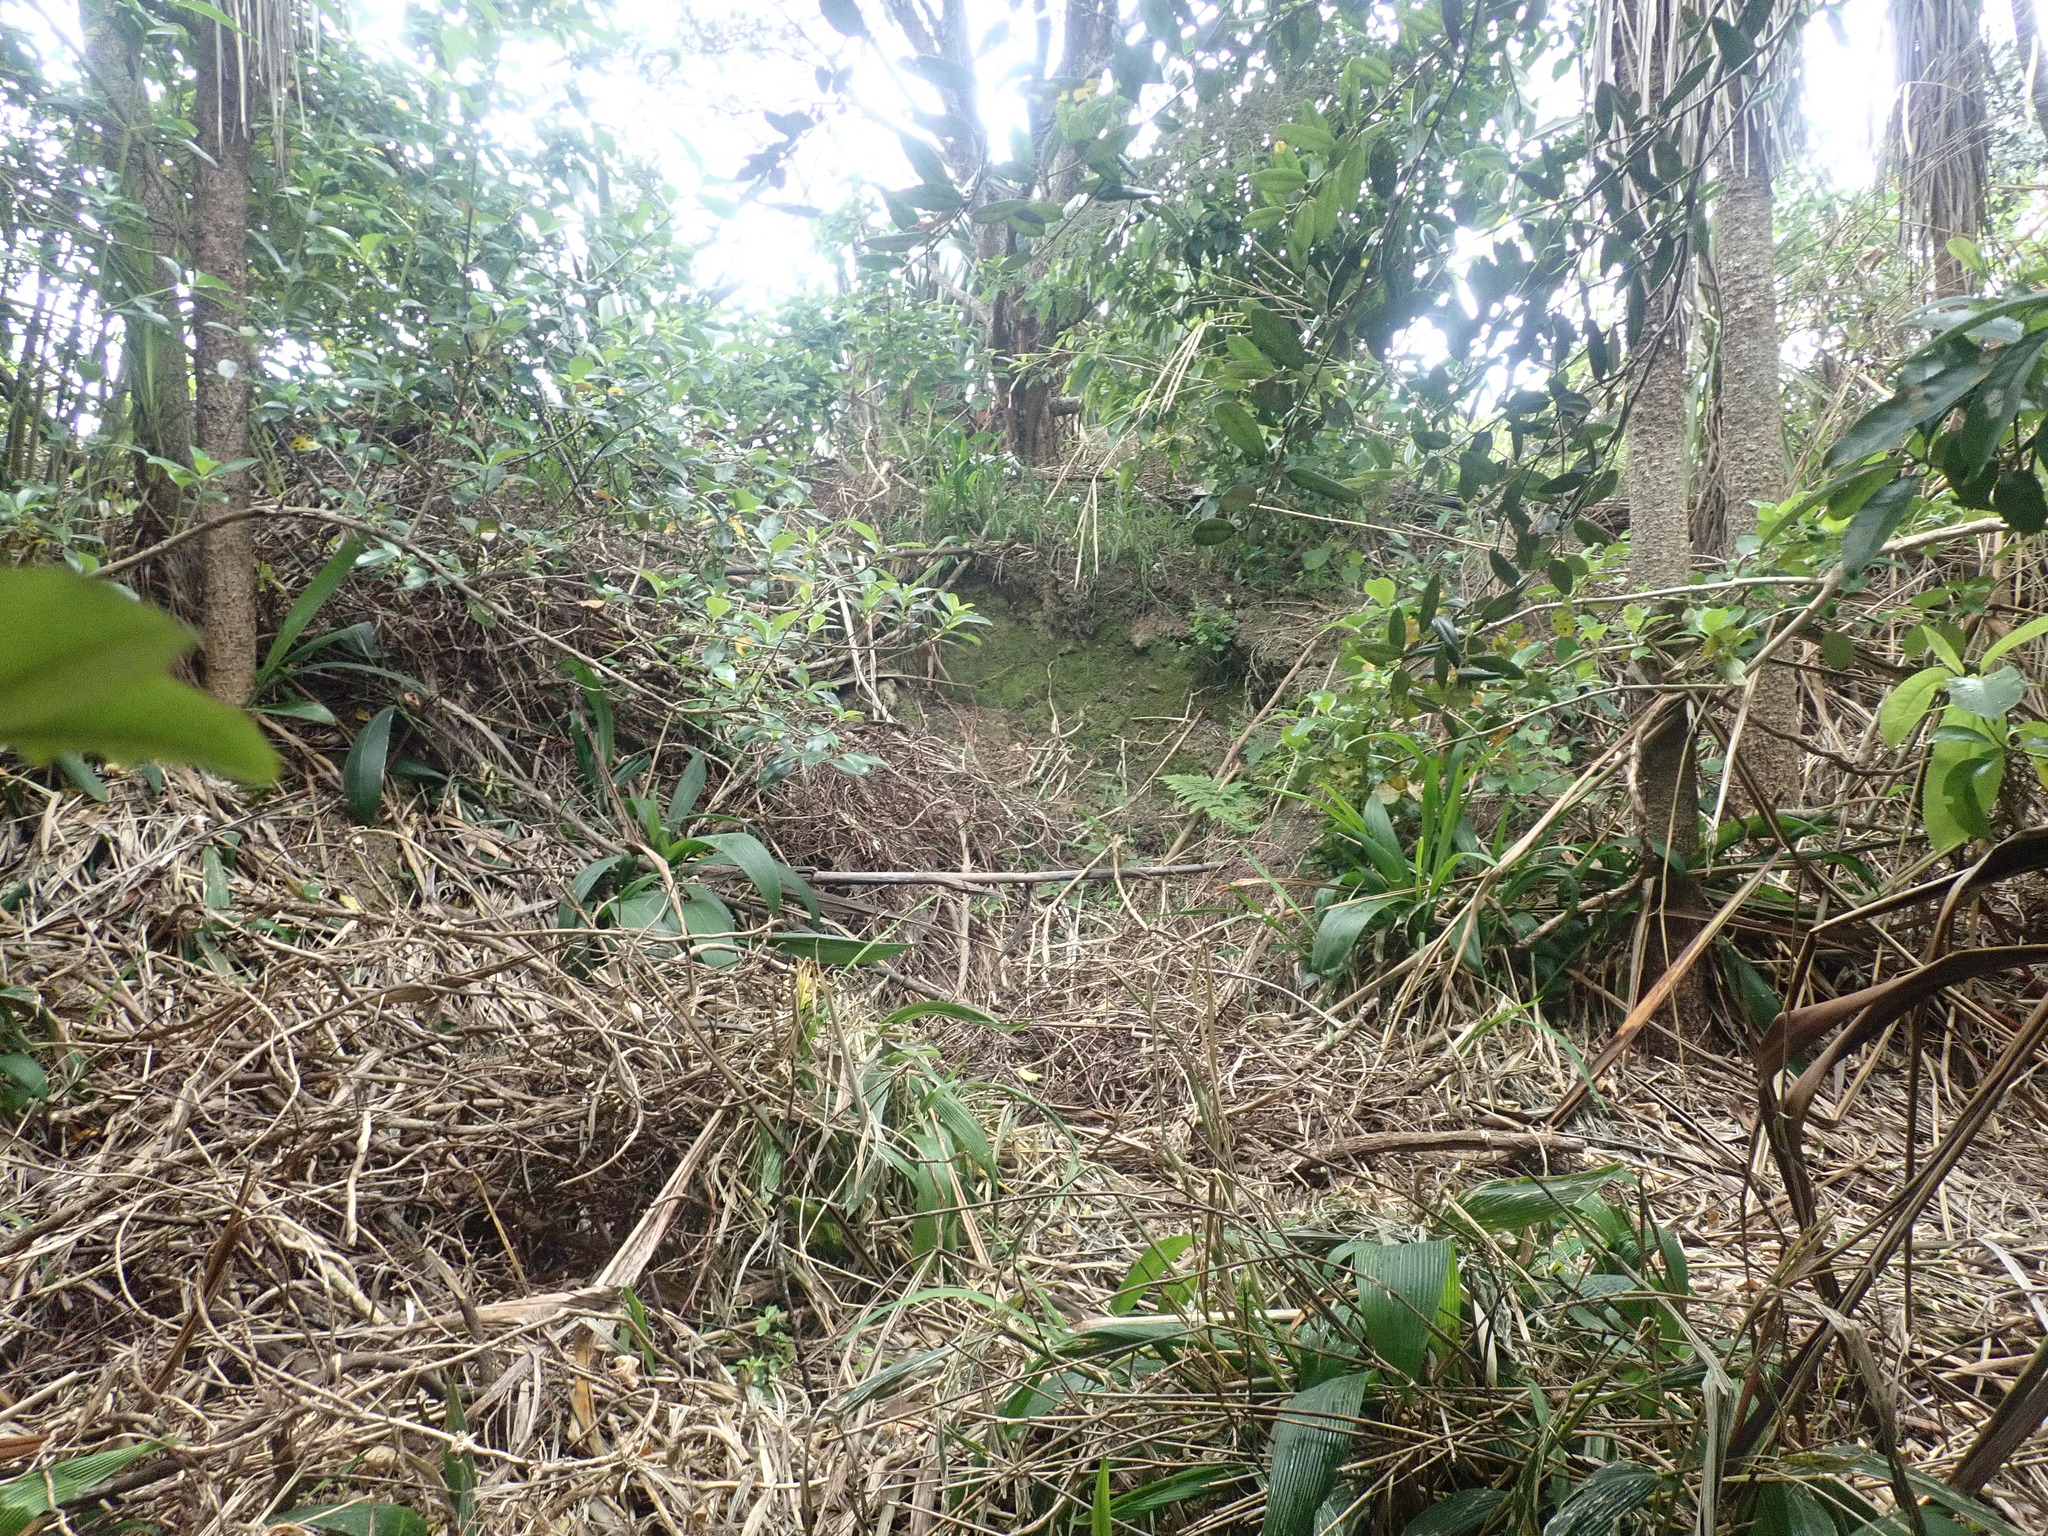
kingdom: Plantae
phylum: Tracheophyta
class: Liliopsida
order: Poales
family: Poaceae
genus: Setaria
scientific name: Setaria palmifolia
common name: Broadleaved bristlegrass
